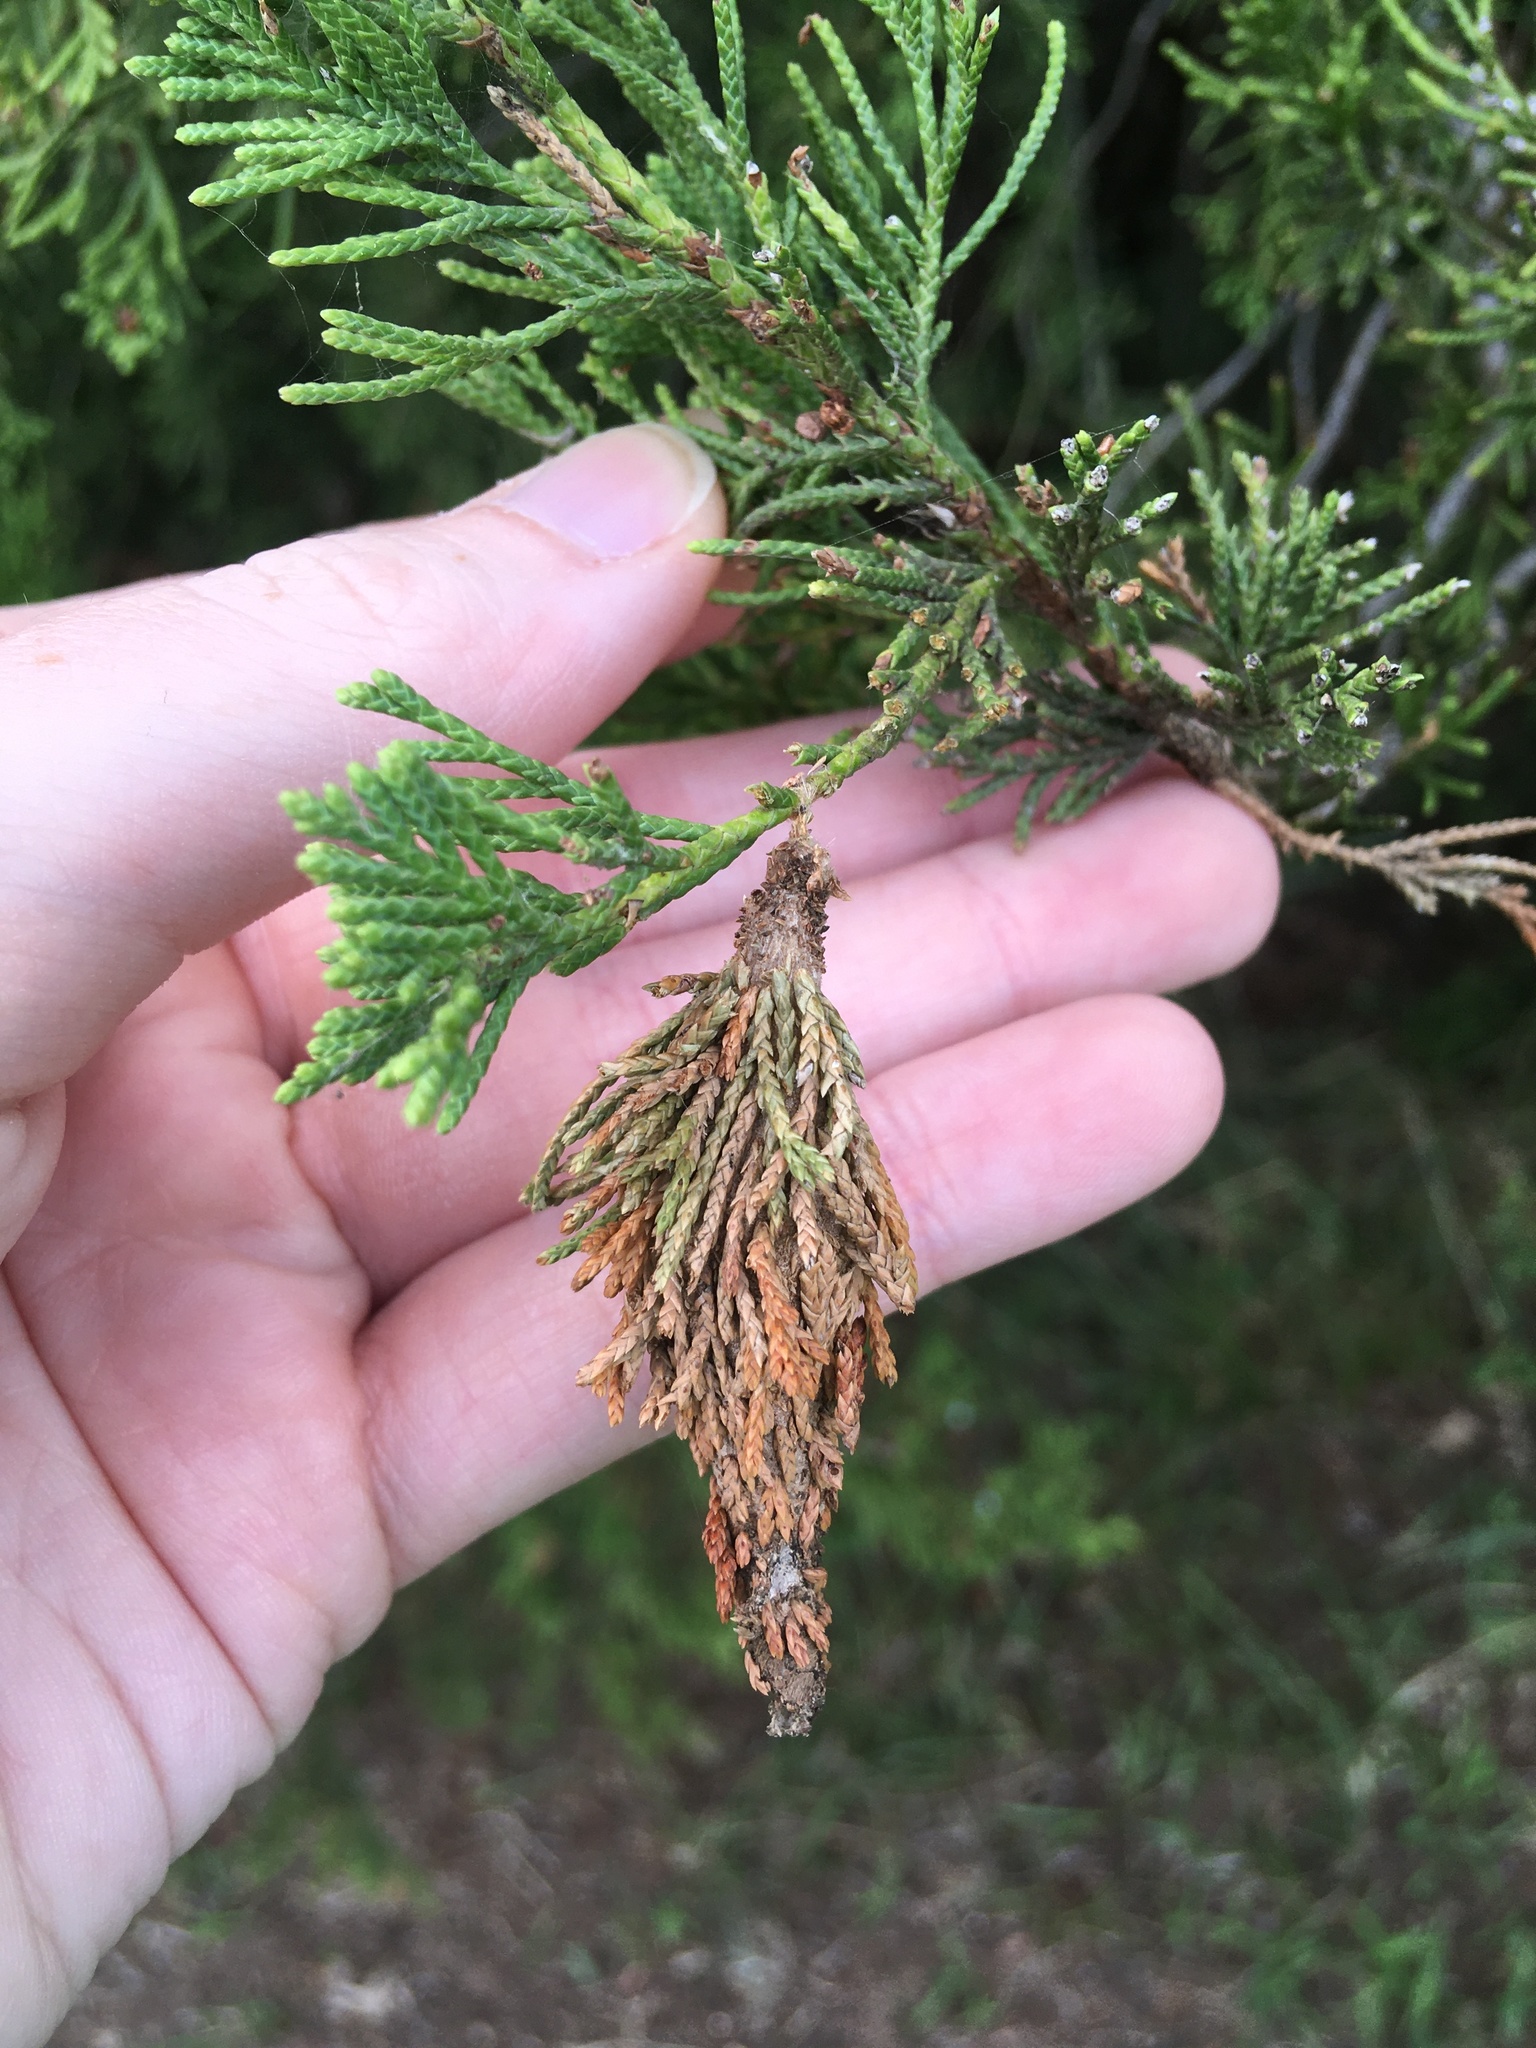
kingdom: Animalia
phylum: Arthropoda
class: Insecta
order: Lepidoptera
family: Psychidae
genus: Thyridopteryx
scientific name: Thyridopteryx ephemeraeformis
